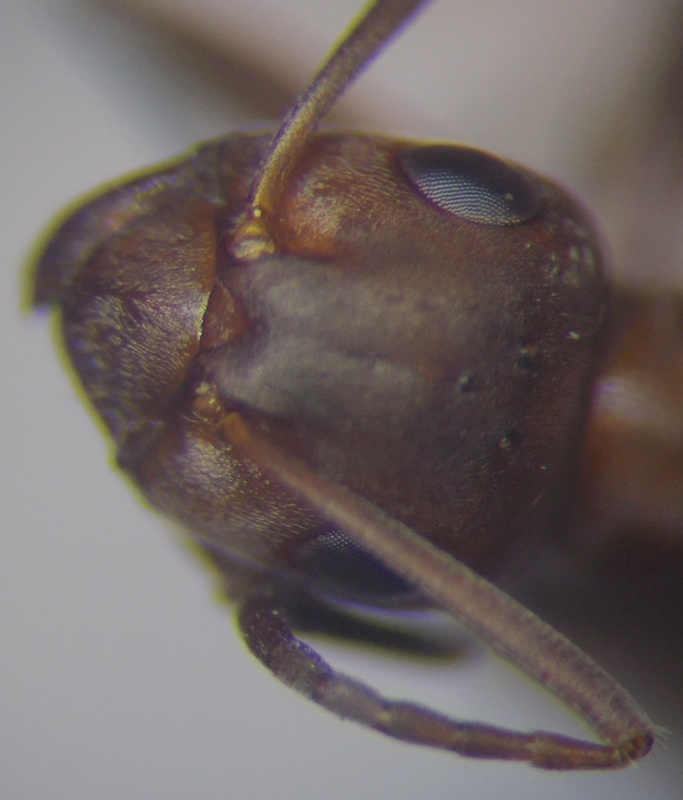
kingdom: Animalia
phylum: Arthropoda
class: Insecta
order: Hymenoptera
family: Formicidae
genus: Formica
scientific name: Formica subpilosa
